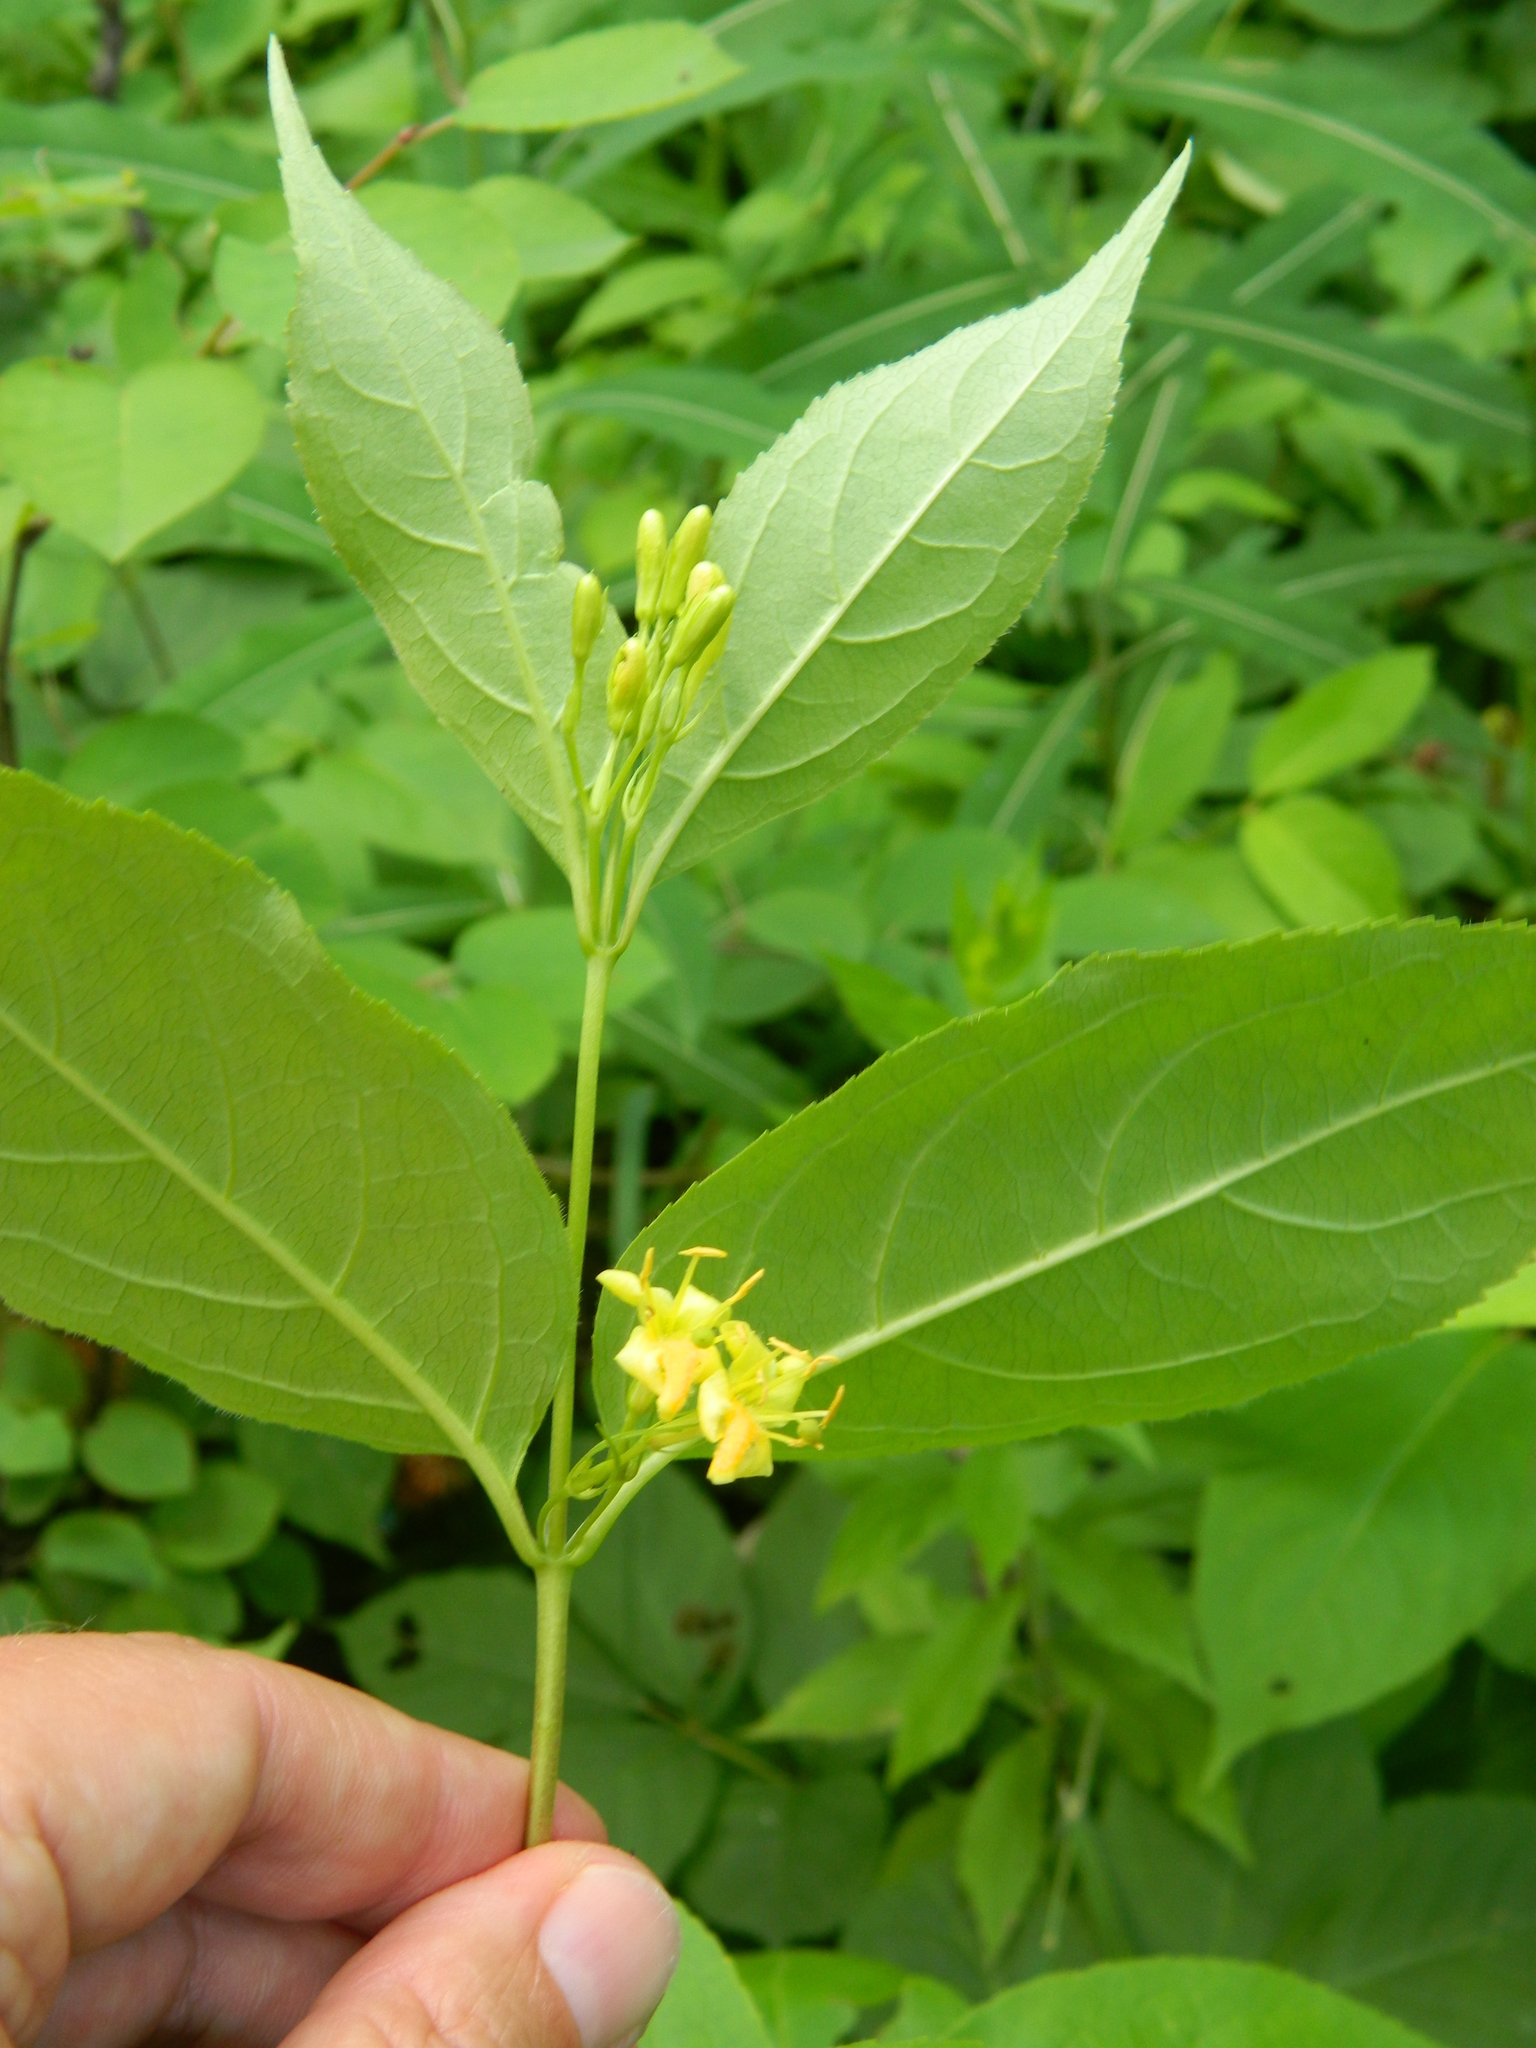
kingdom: Plantae
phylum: Tracheophyta
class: Magnoliopsida
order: Dipsacales
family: Caprifoliaceae
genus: Diervilla
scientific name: Diervilla lonicera
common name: Bush-honeysuckle
